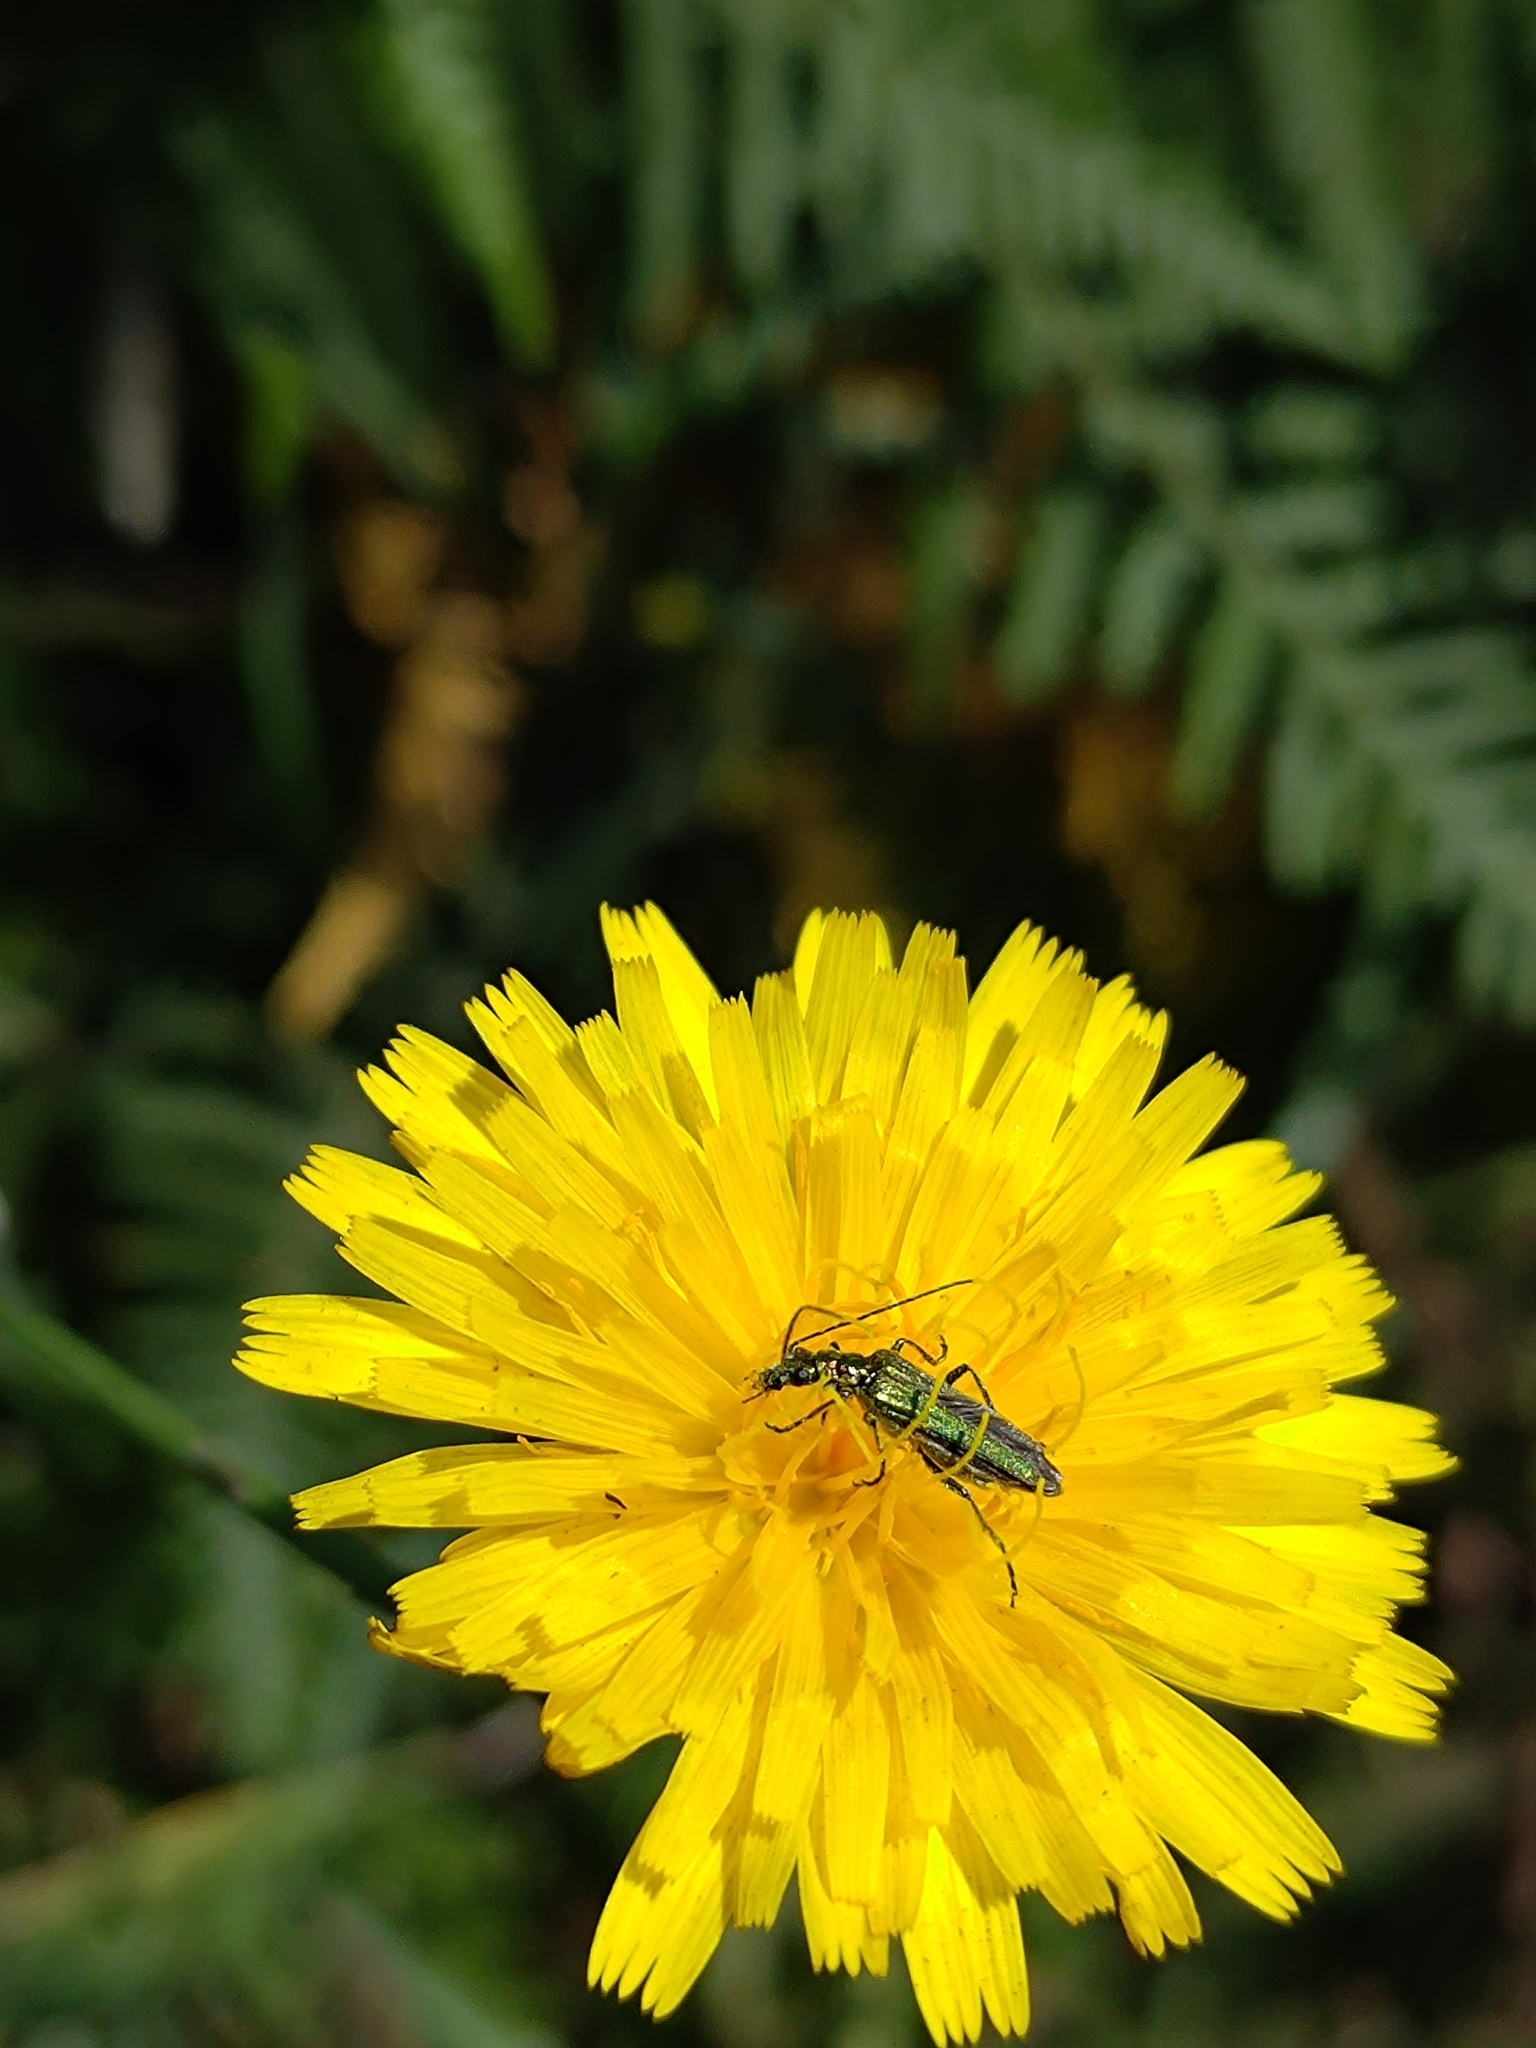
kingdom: Animalia
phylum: Arthropoda
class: Insecta
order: Coleoptera
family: Oedemeridae
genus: Oedemera
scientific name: Oedemera nobilis
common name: Swollen-thighed beetle
